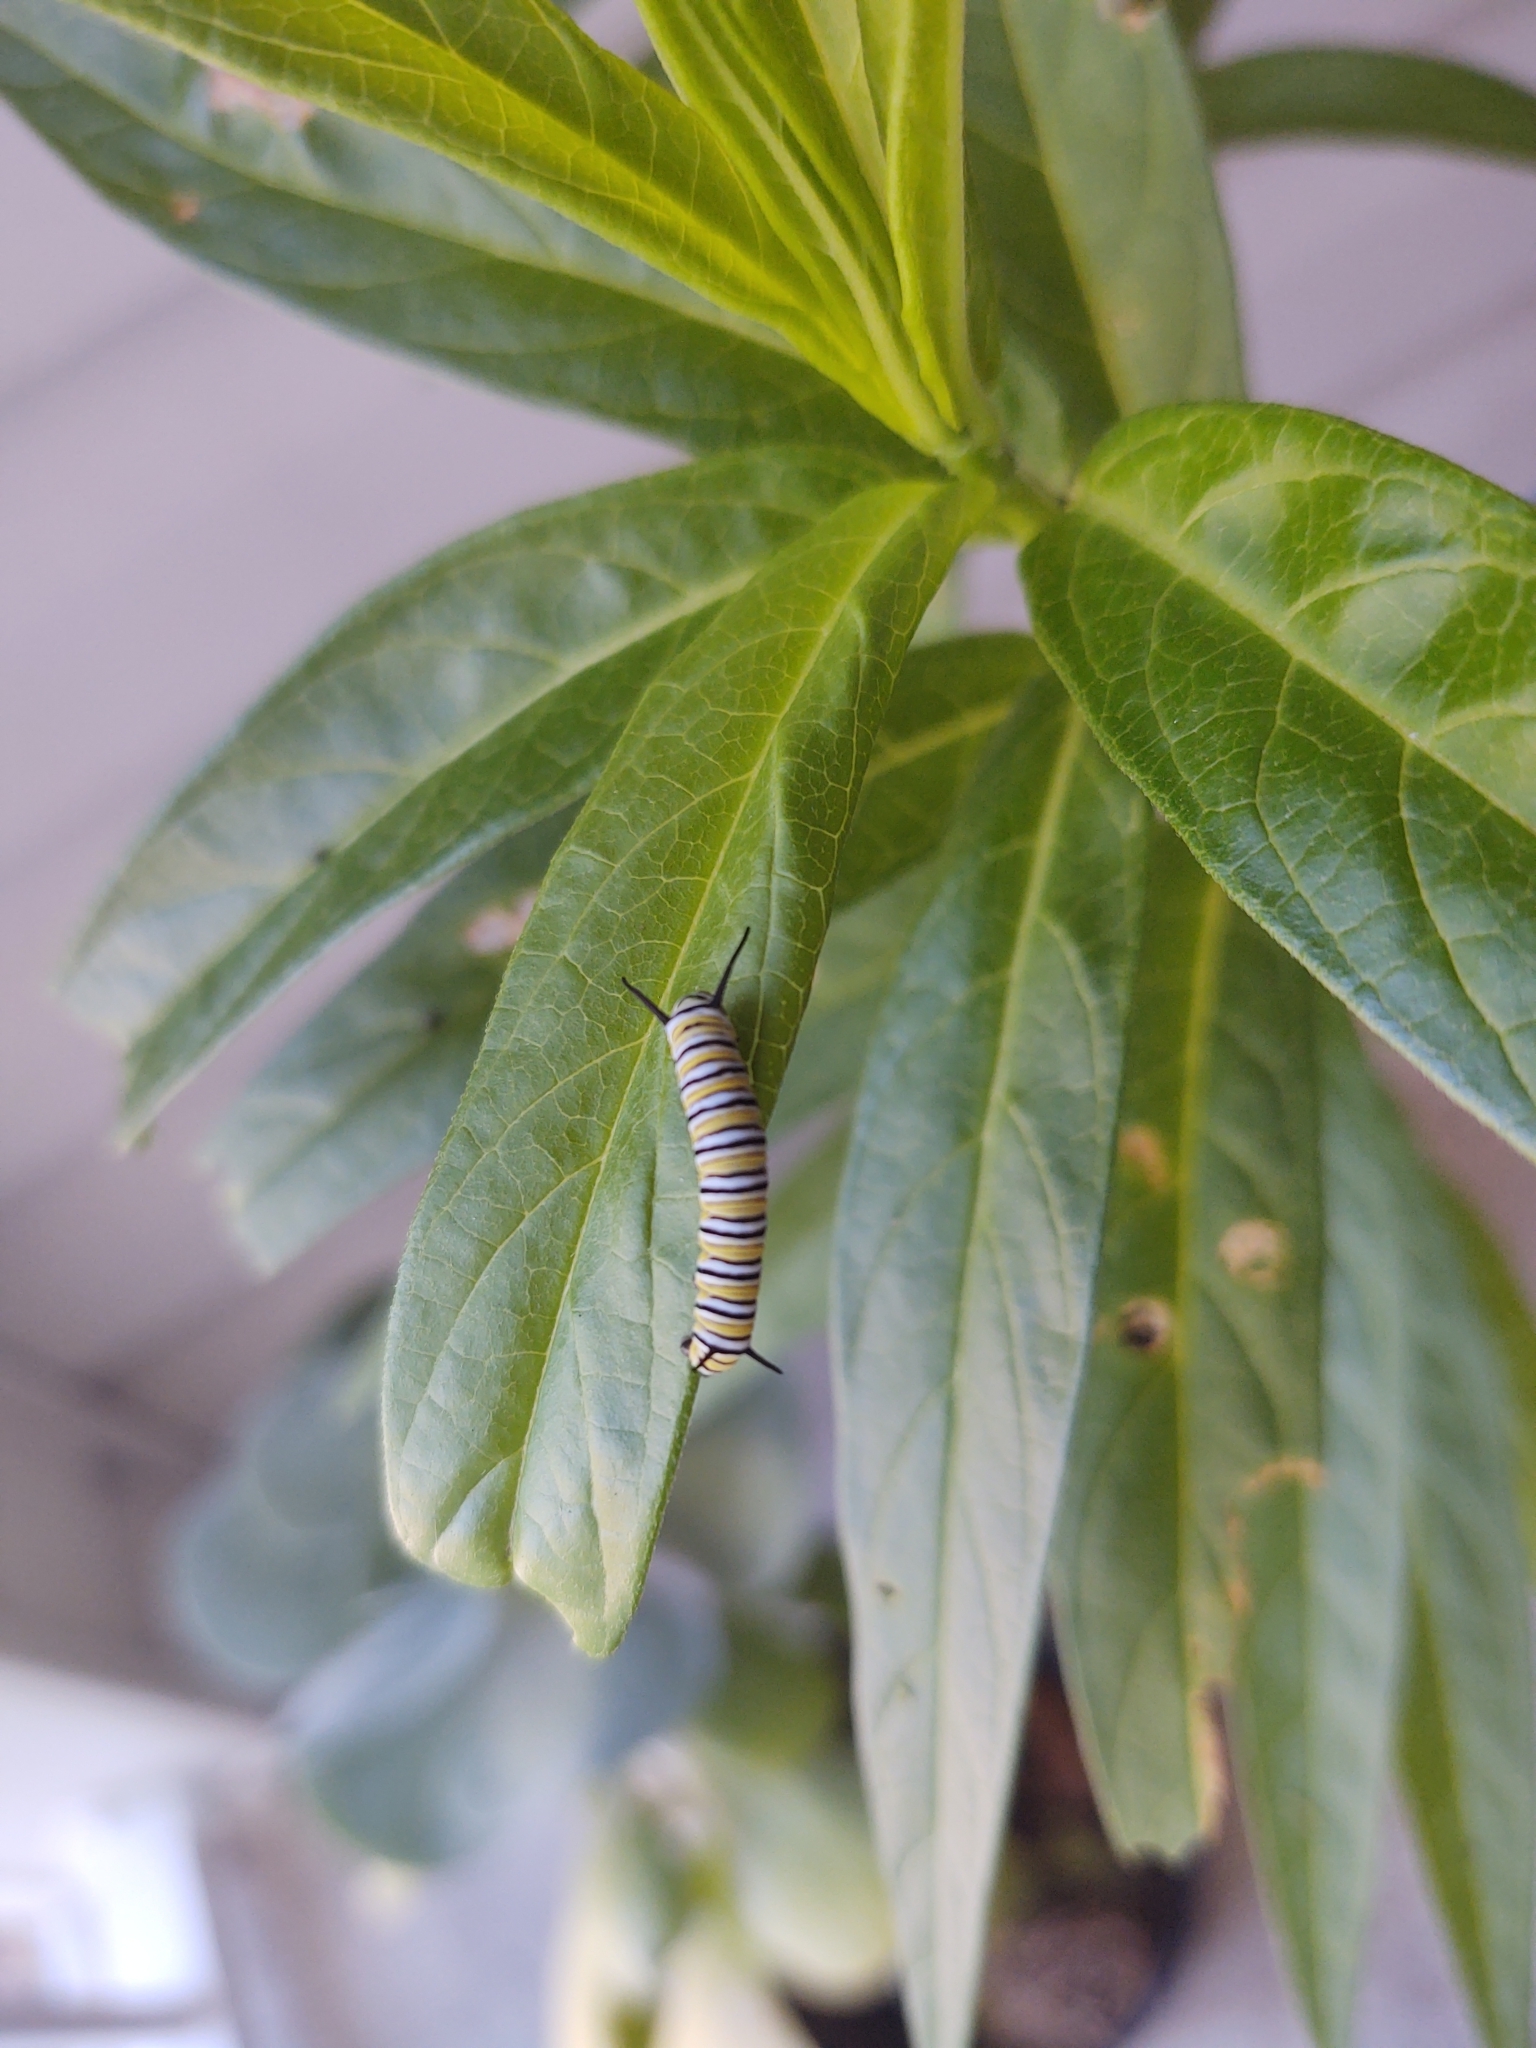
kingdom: Animalia
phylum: Arthropoda
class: Insecta
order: Lepidoptera
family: Nymphalidae
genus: Danaus
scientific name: Danaus plexippus
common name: Monarch
